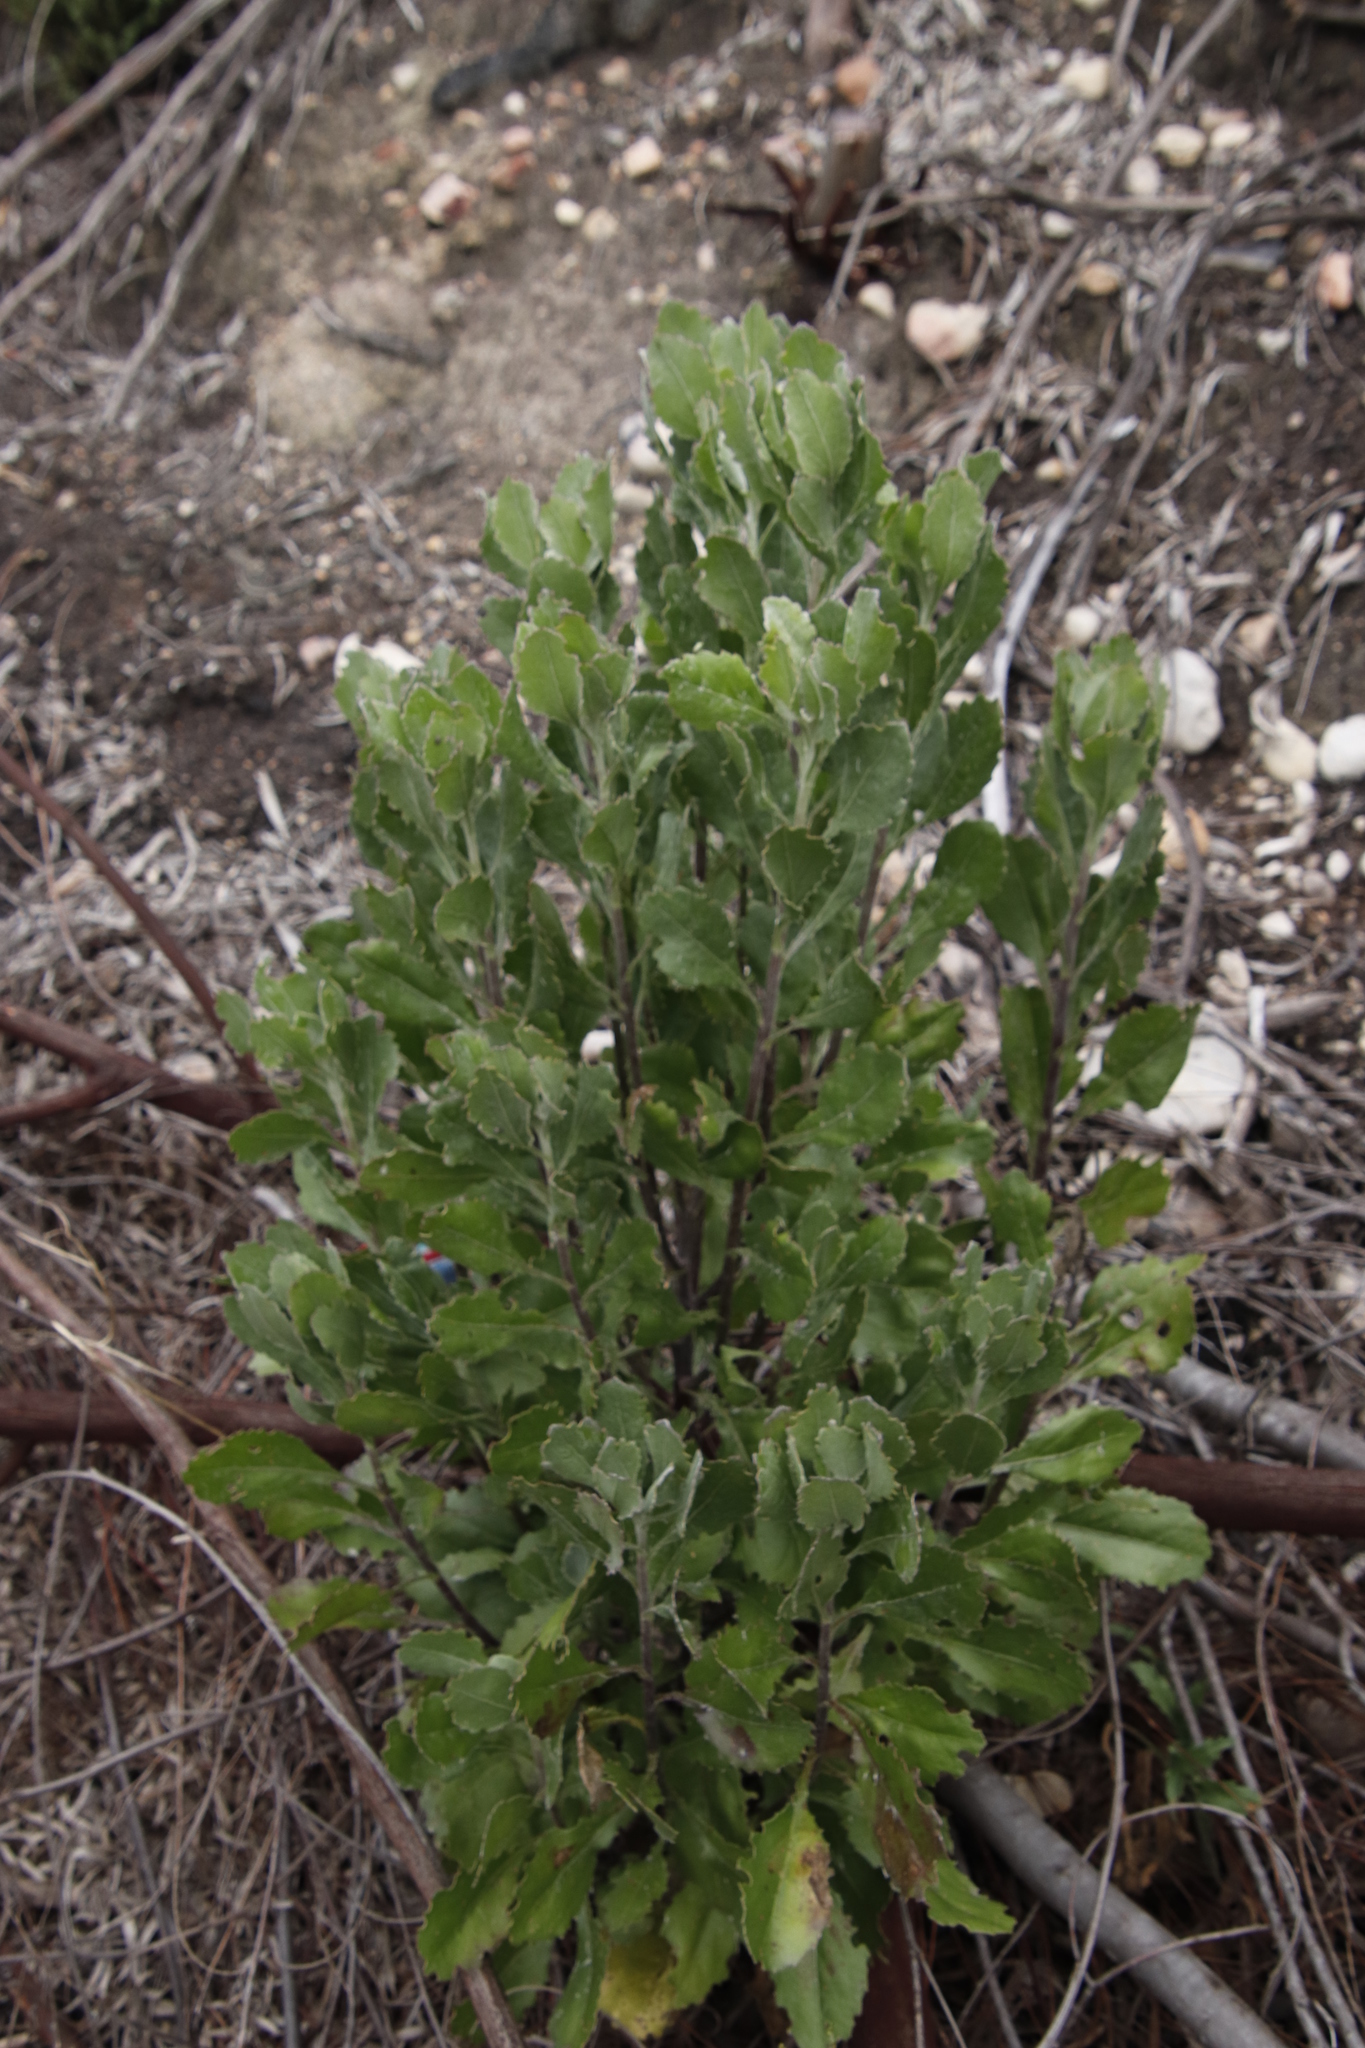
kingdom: Plantae
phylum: Tracheophyta
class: Magnoliopsida
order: Asterales
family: Asteraceae
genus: Osteospermum
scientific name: Osteospermum moniliferum
